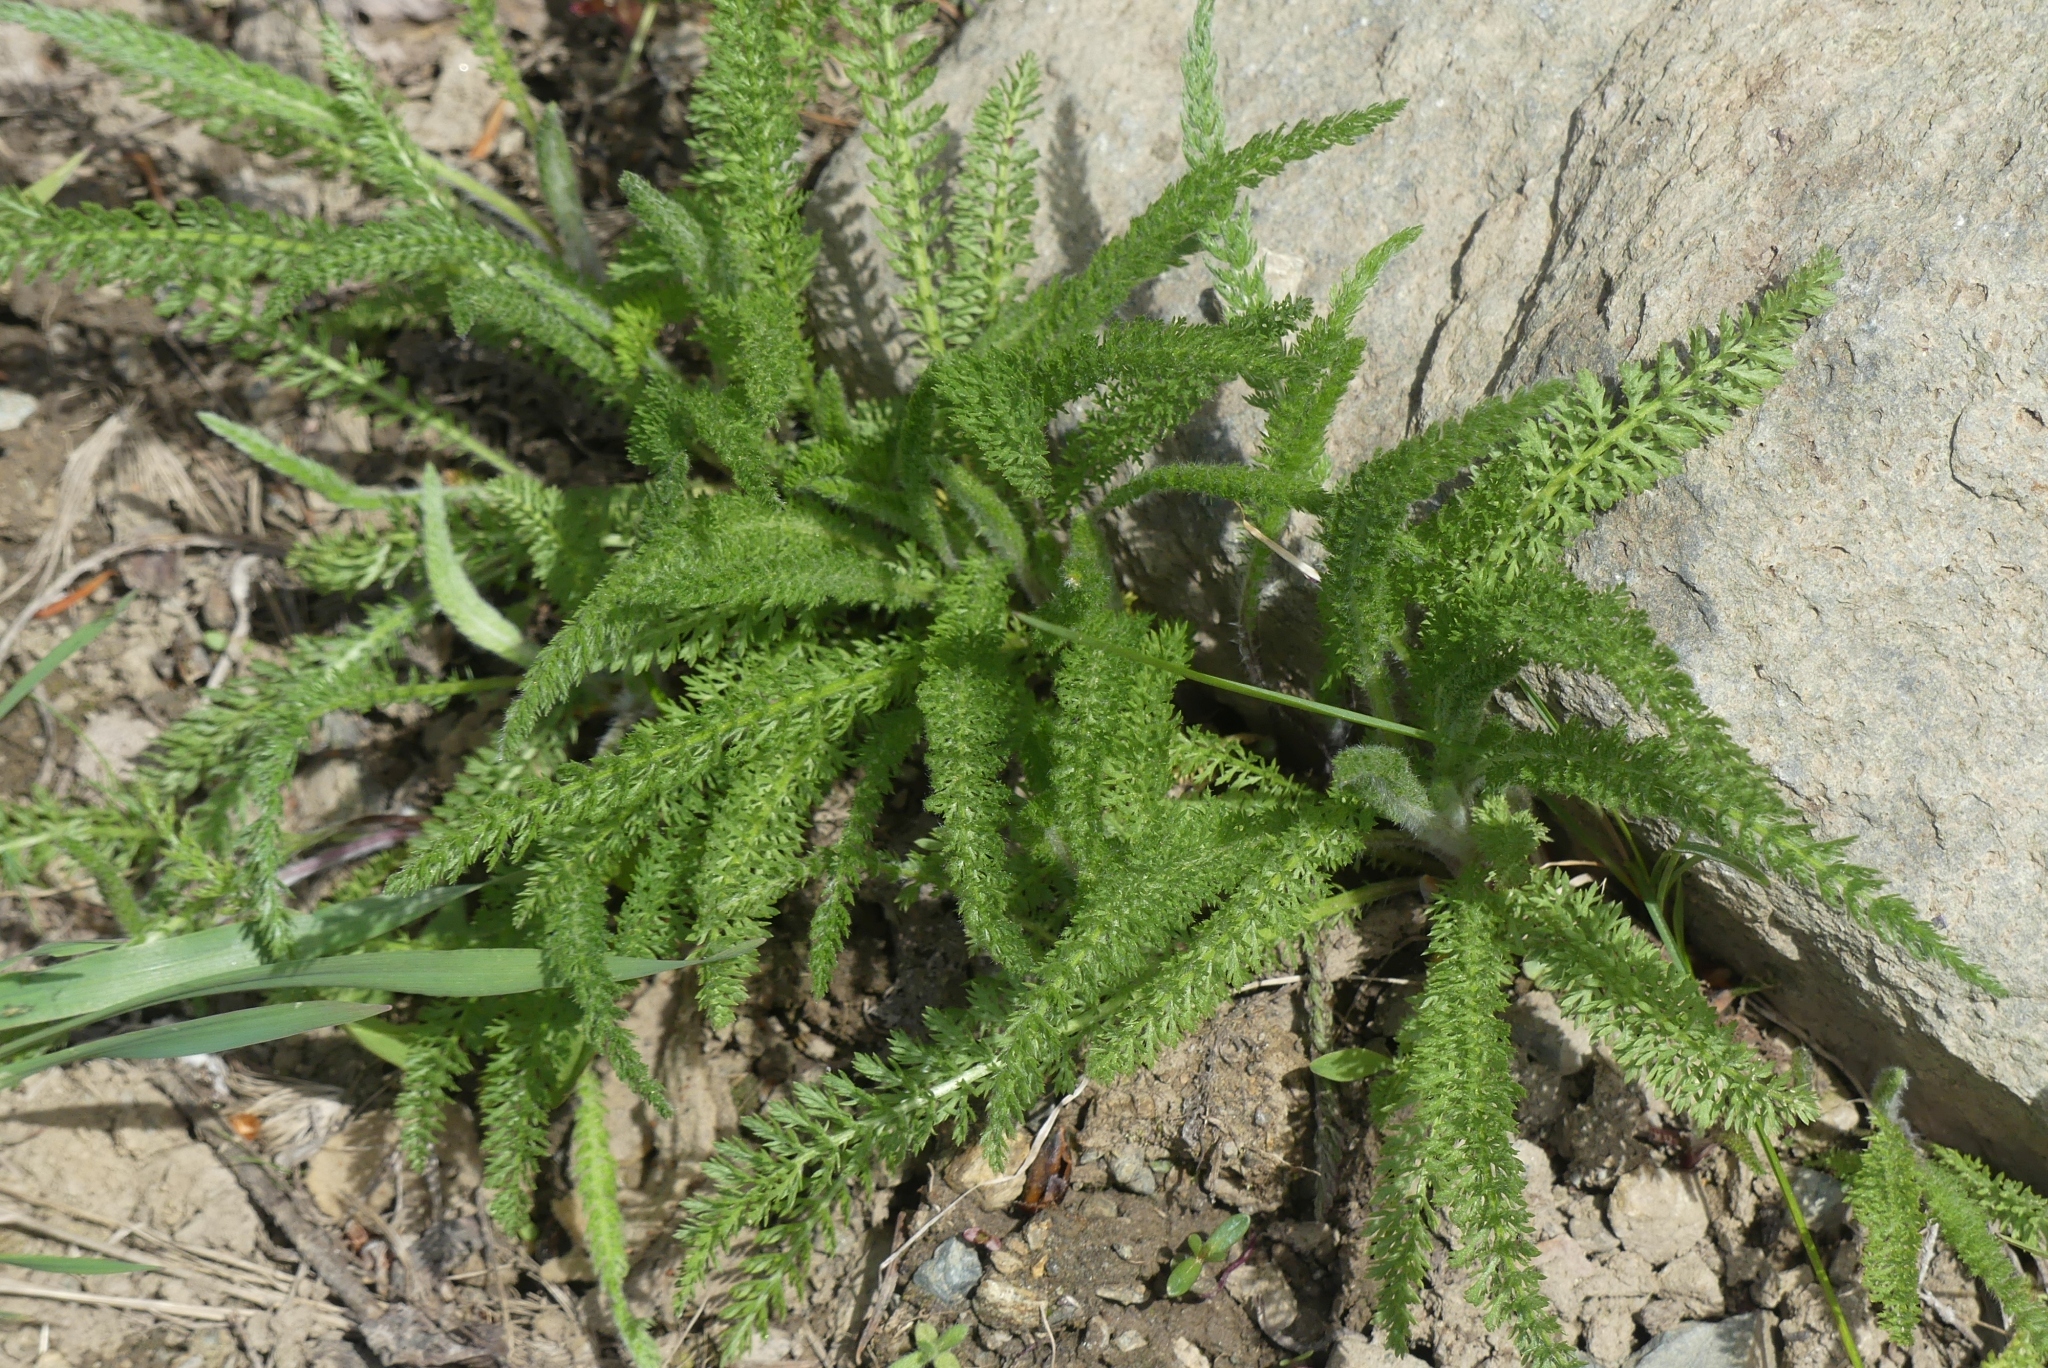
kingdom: Plantae
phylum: Tracheophyta
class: Magnoliopsida
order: Asterales
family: Asteraceae
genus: Achillea
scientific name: Achillea millefolium
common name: Yarrow
